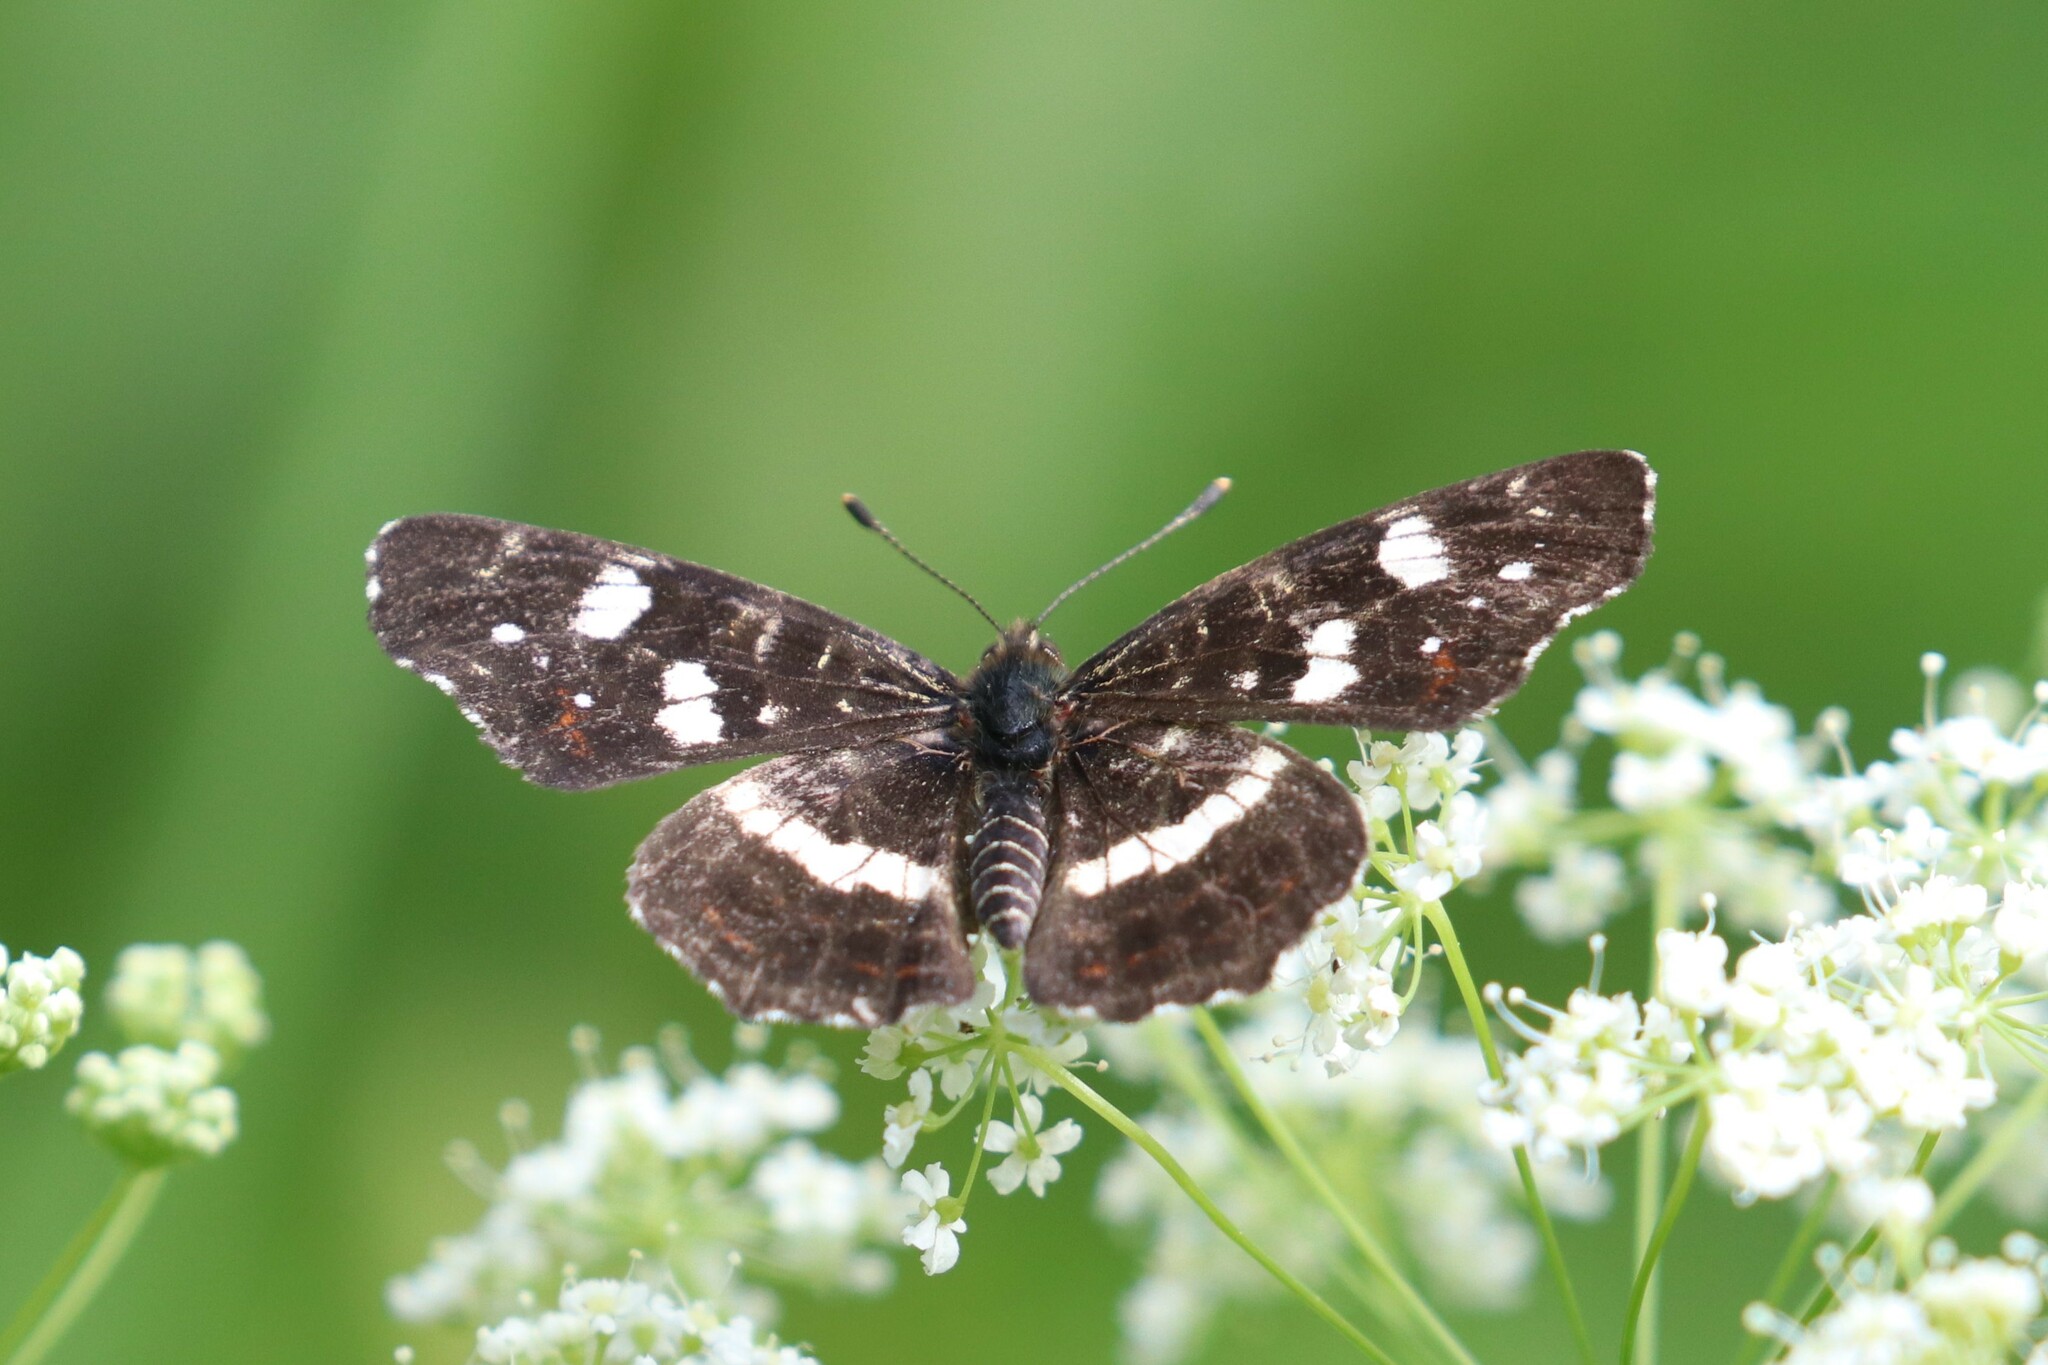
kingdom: Animalia
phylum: Arthropoda
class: Insecta
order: Lepidoptera
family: Nymphalidae
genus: Araschnia
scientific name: Araschnia levana
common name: Map butterfly
